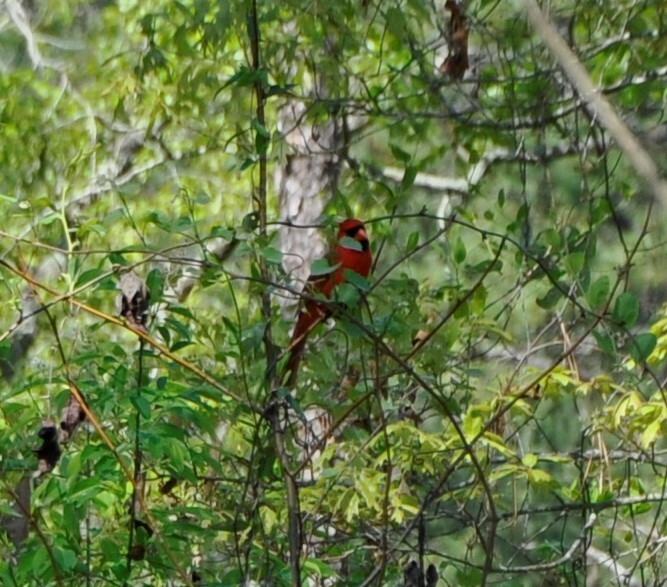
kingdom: Animalia
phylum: Chordata
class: Aves
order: Passeriformes
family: Cardinalidae
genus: Cardinalis
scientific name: Cardinalis cardinalis
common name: Northern cardinal
